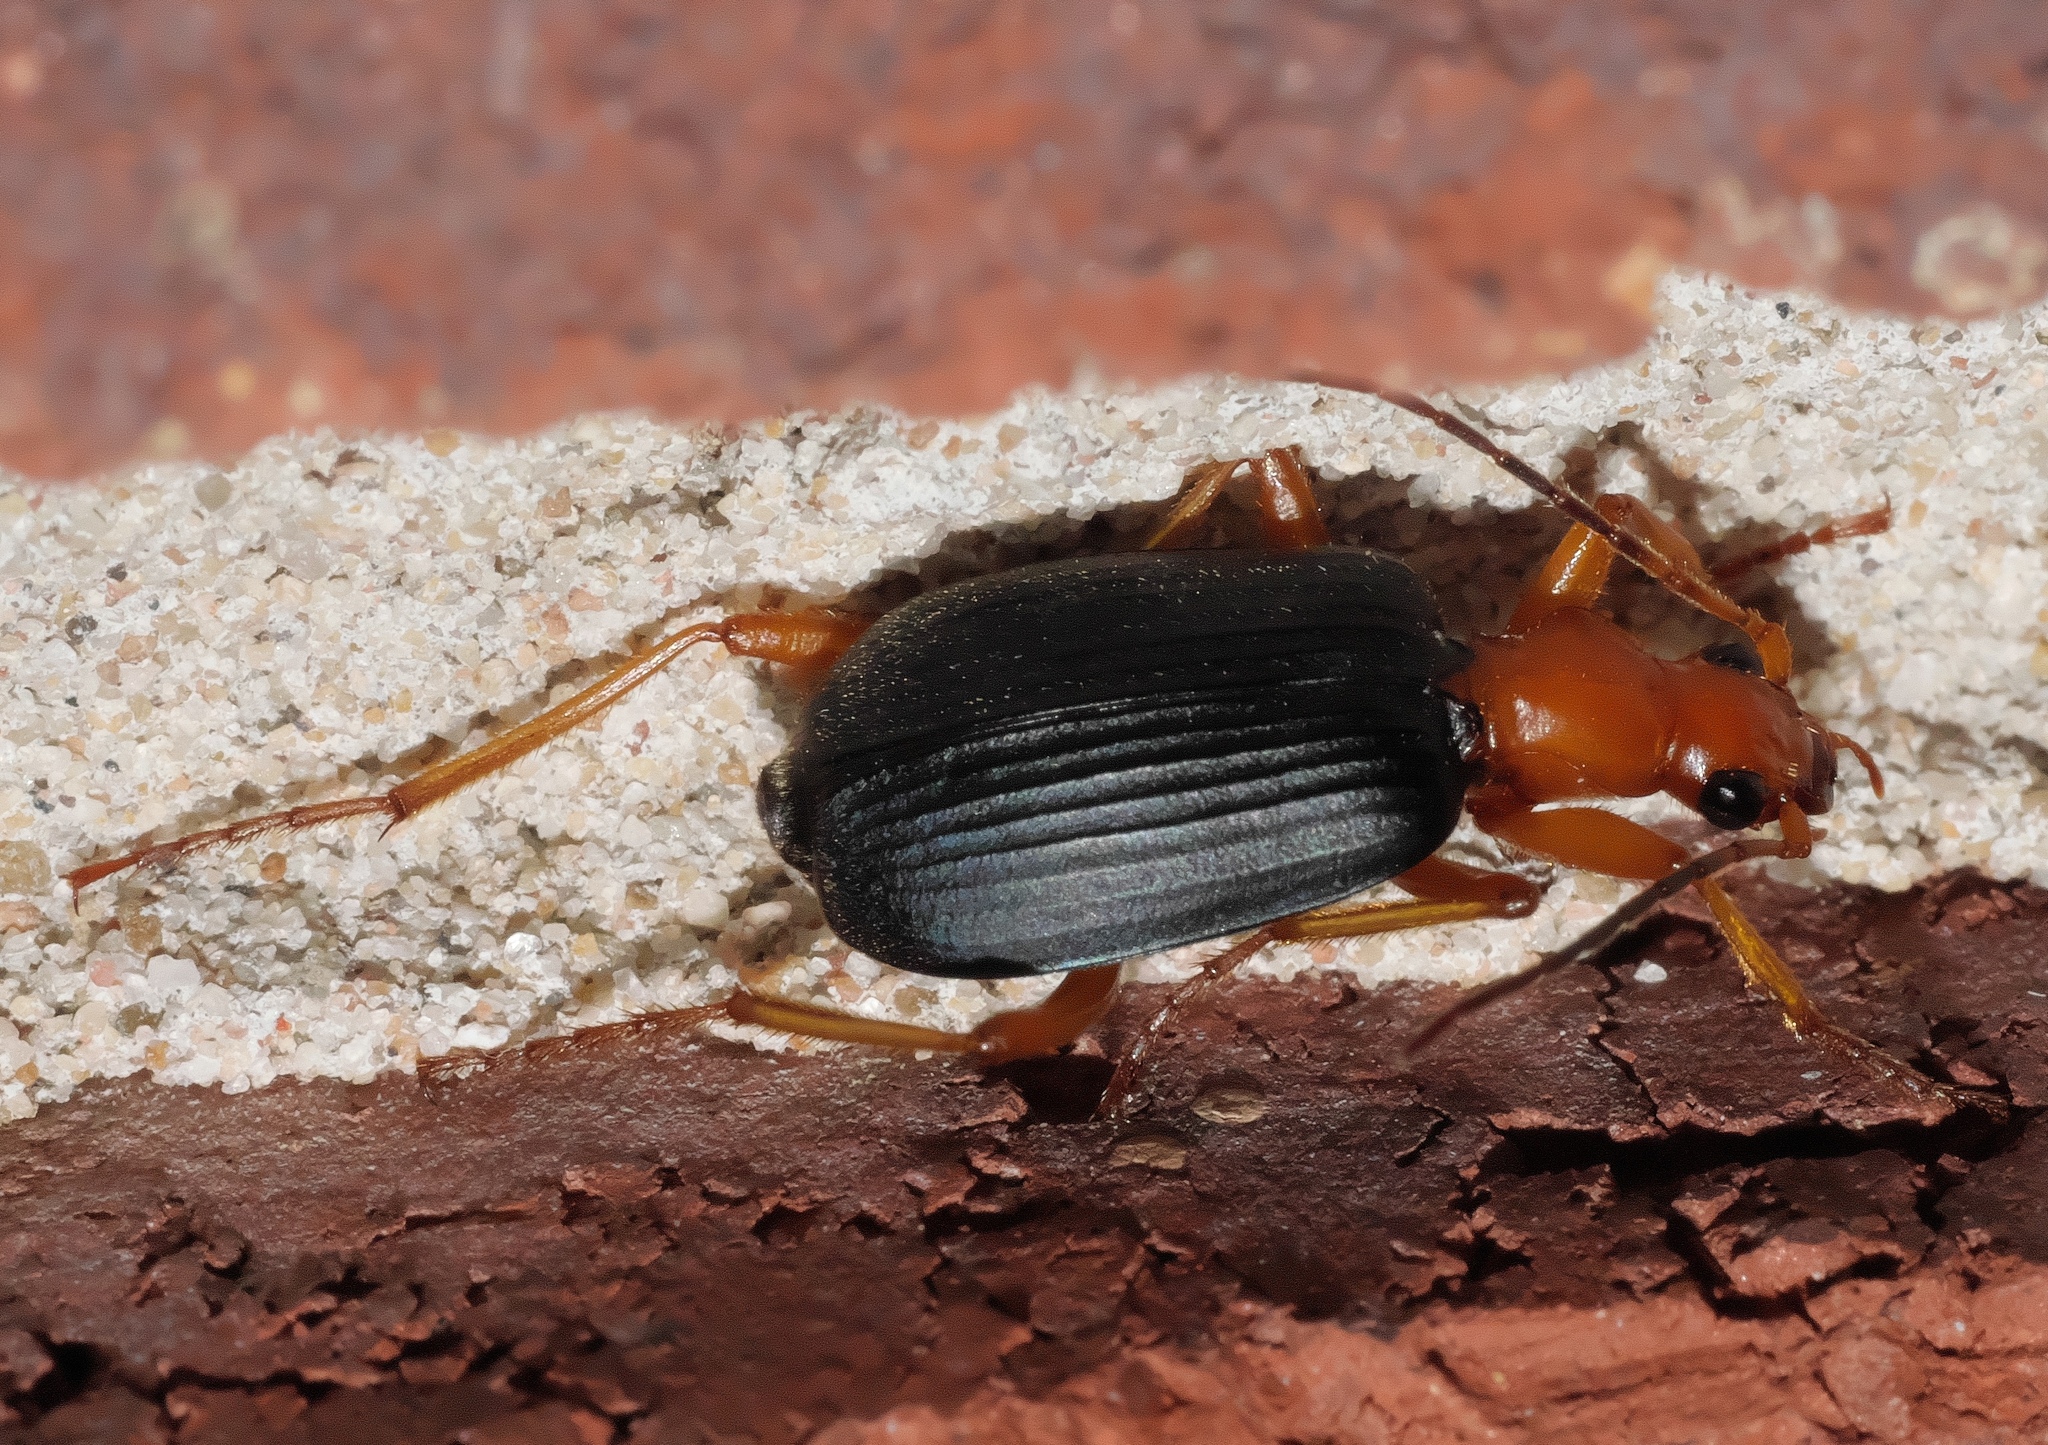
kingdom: Animalia
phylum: Arthropoda
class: Insecta
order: Coleoptera
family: Carabidae
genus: Brachinus
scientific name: Brachinus tenuicollis
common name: Narrow-necked little bombardier beetle
